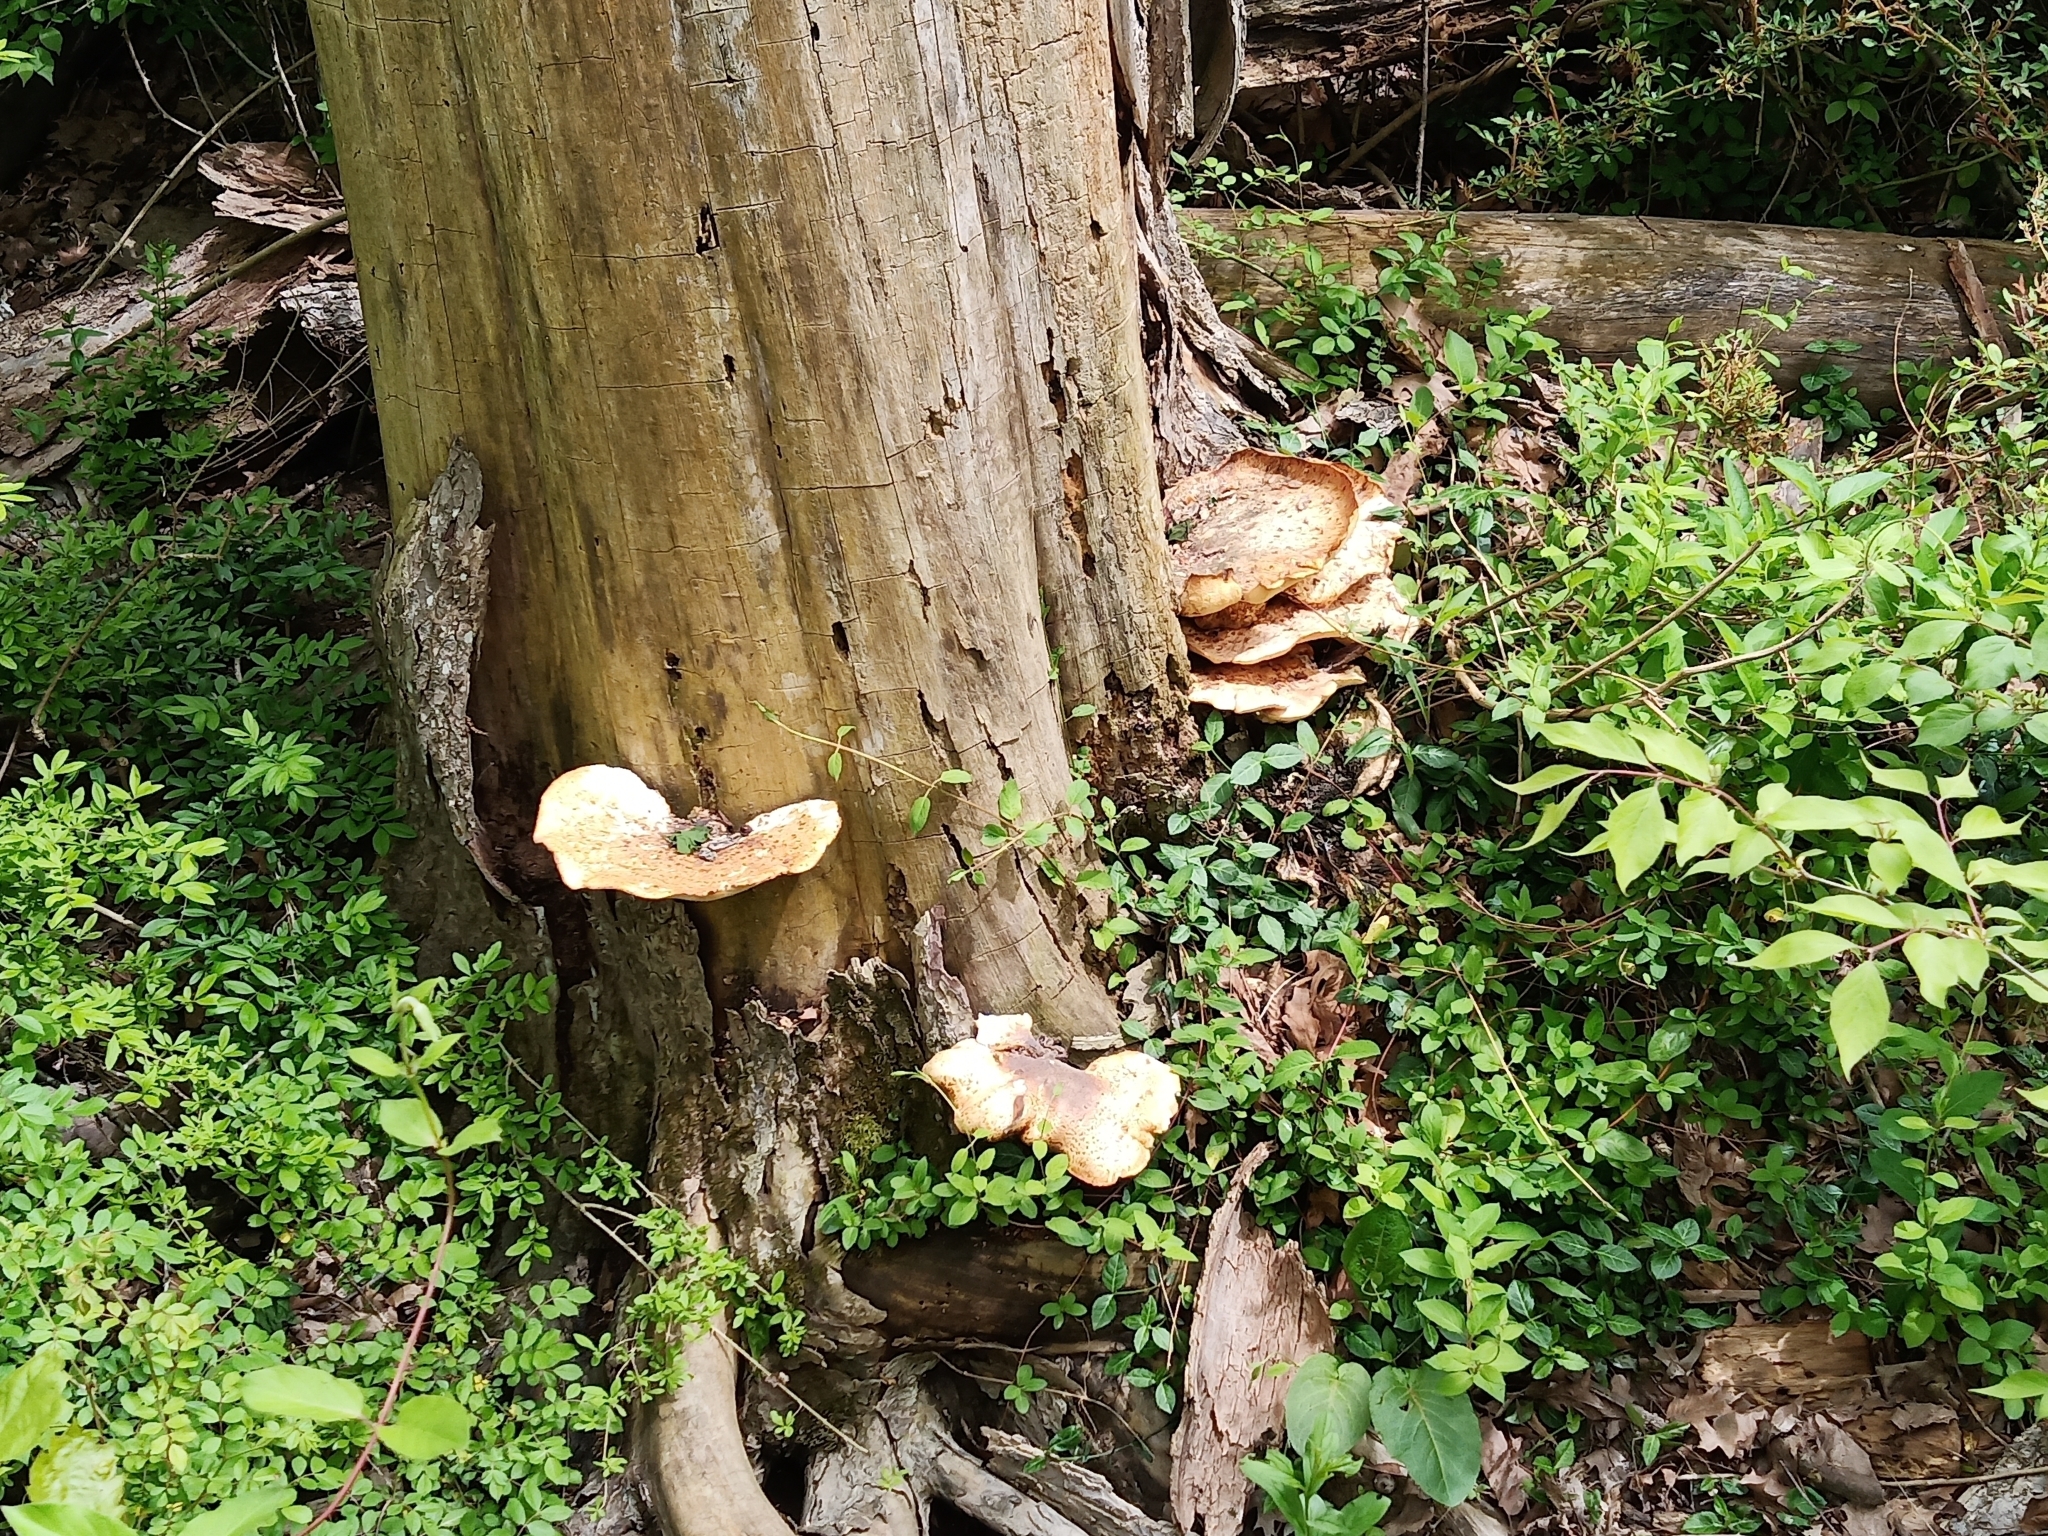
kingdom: Fungi
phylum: Basidiomycota
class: Agaricomycetes
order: Polyporales
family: Polyporaceae
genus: Cerioporus
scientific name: Cerioporus squamosus
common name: Dryad's saddle
